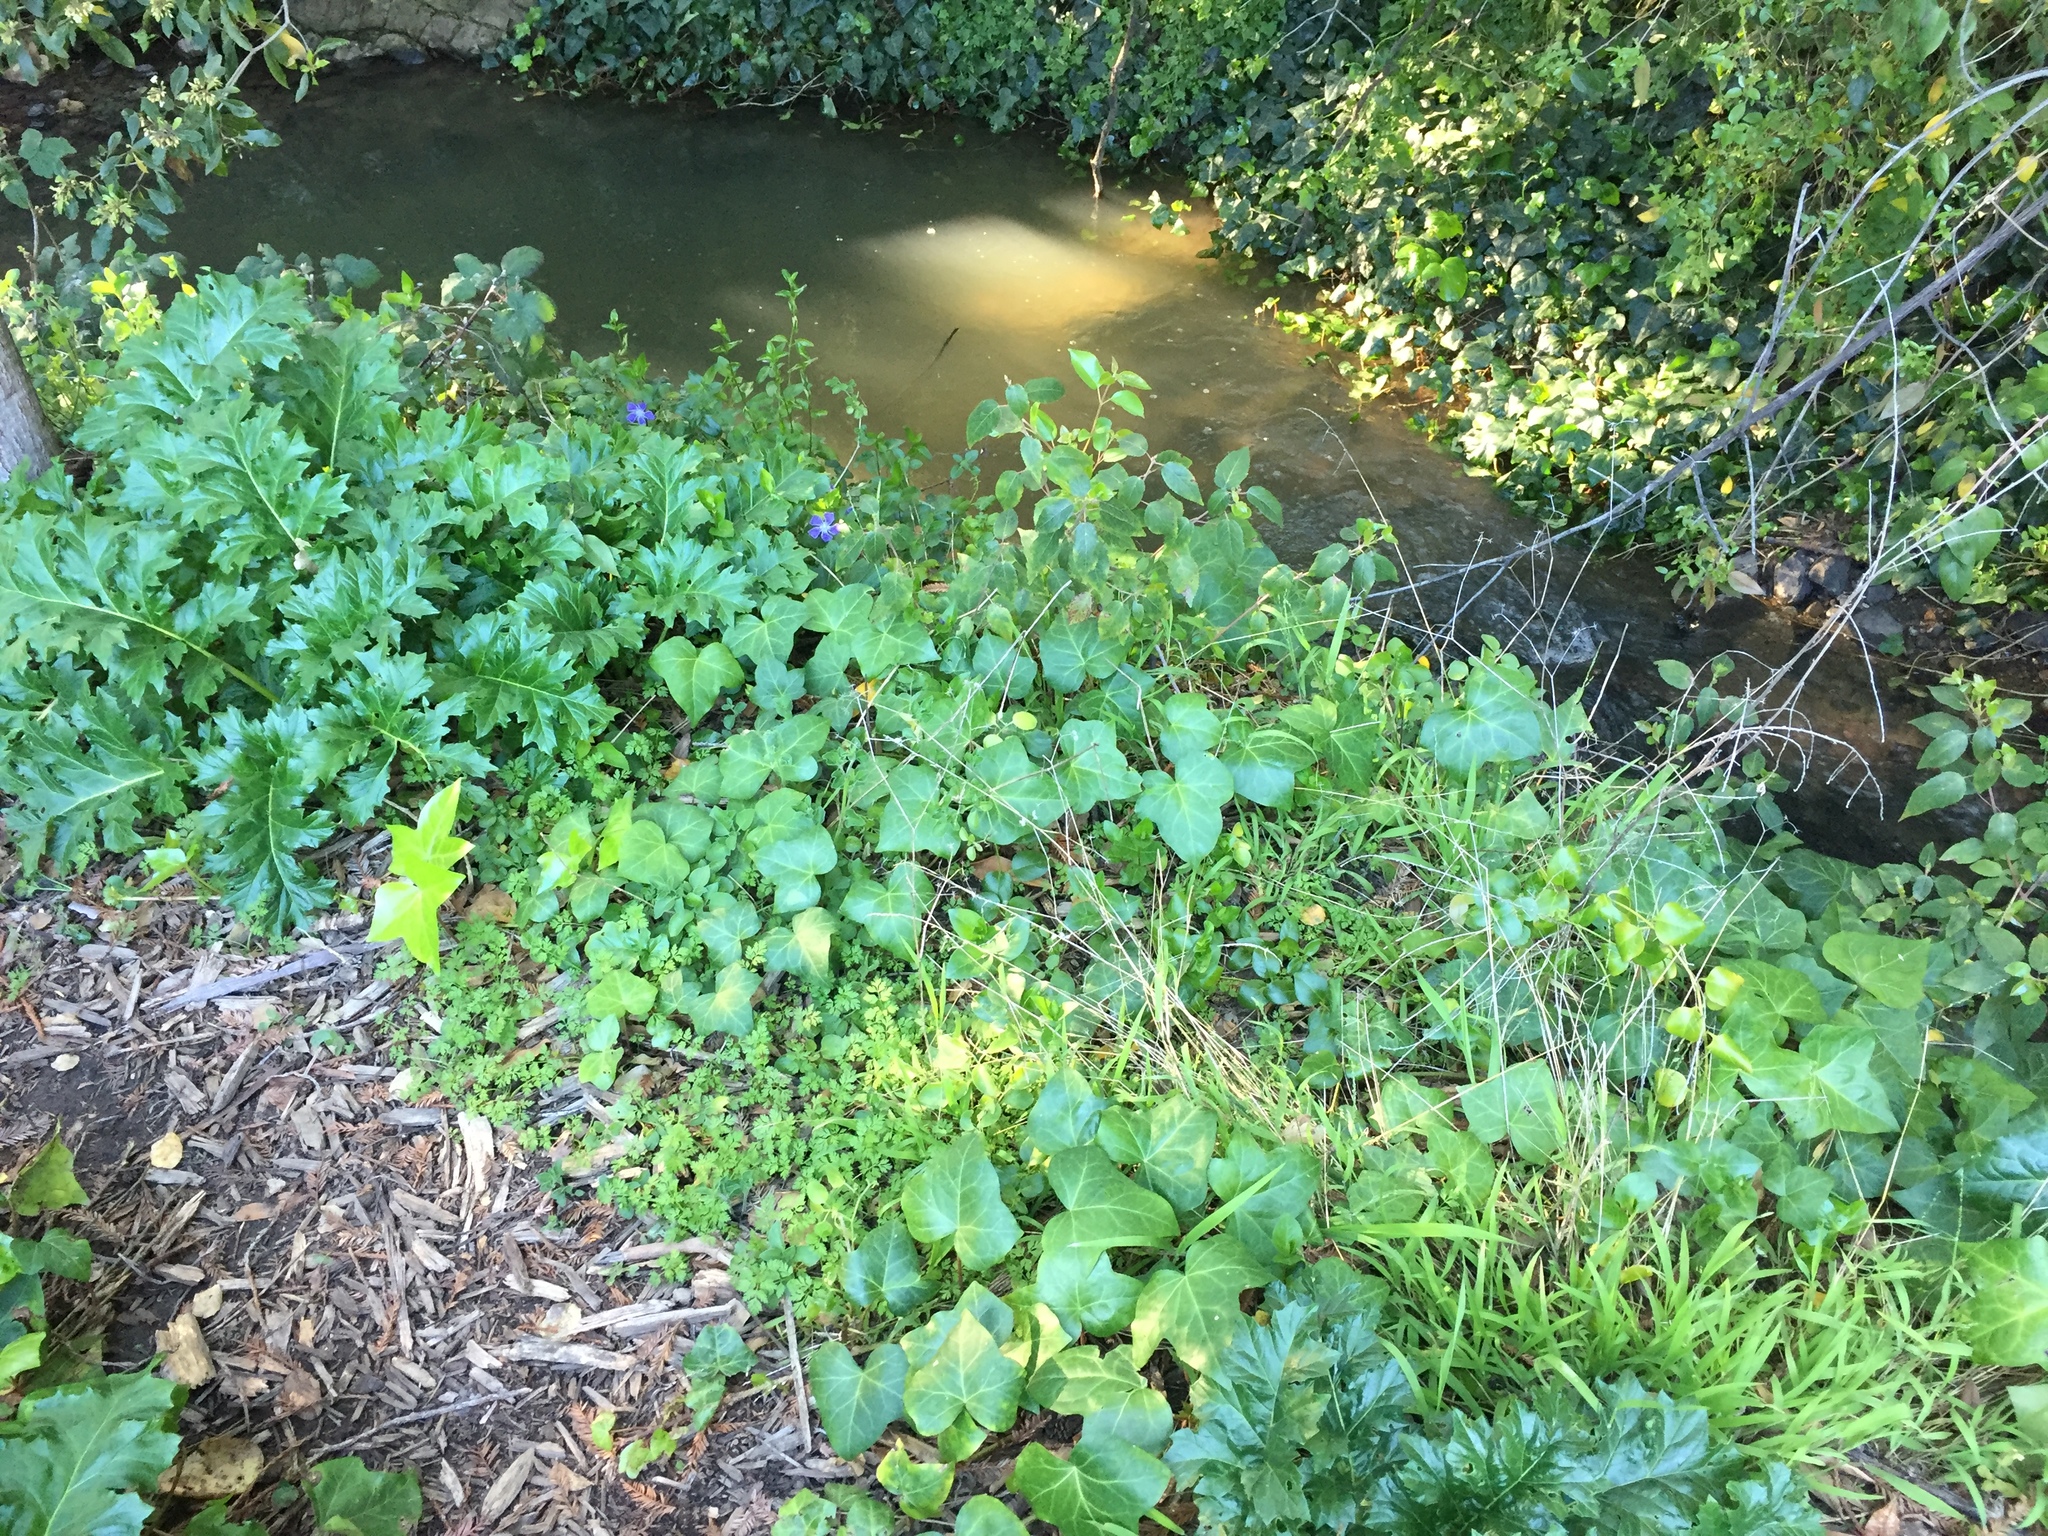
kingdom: Plantae
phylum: Tracheophyta
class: Magnoliopsida
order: Gentianales
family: Apocynaceae
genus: Vinca
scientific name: Vinca major
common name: Greater periwinkle
